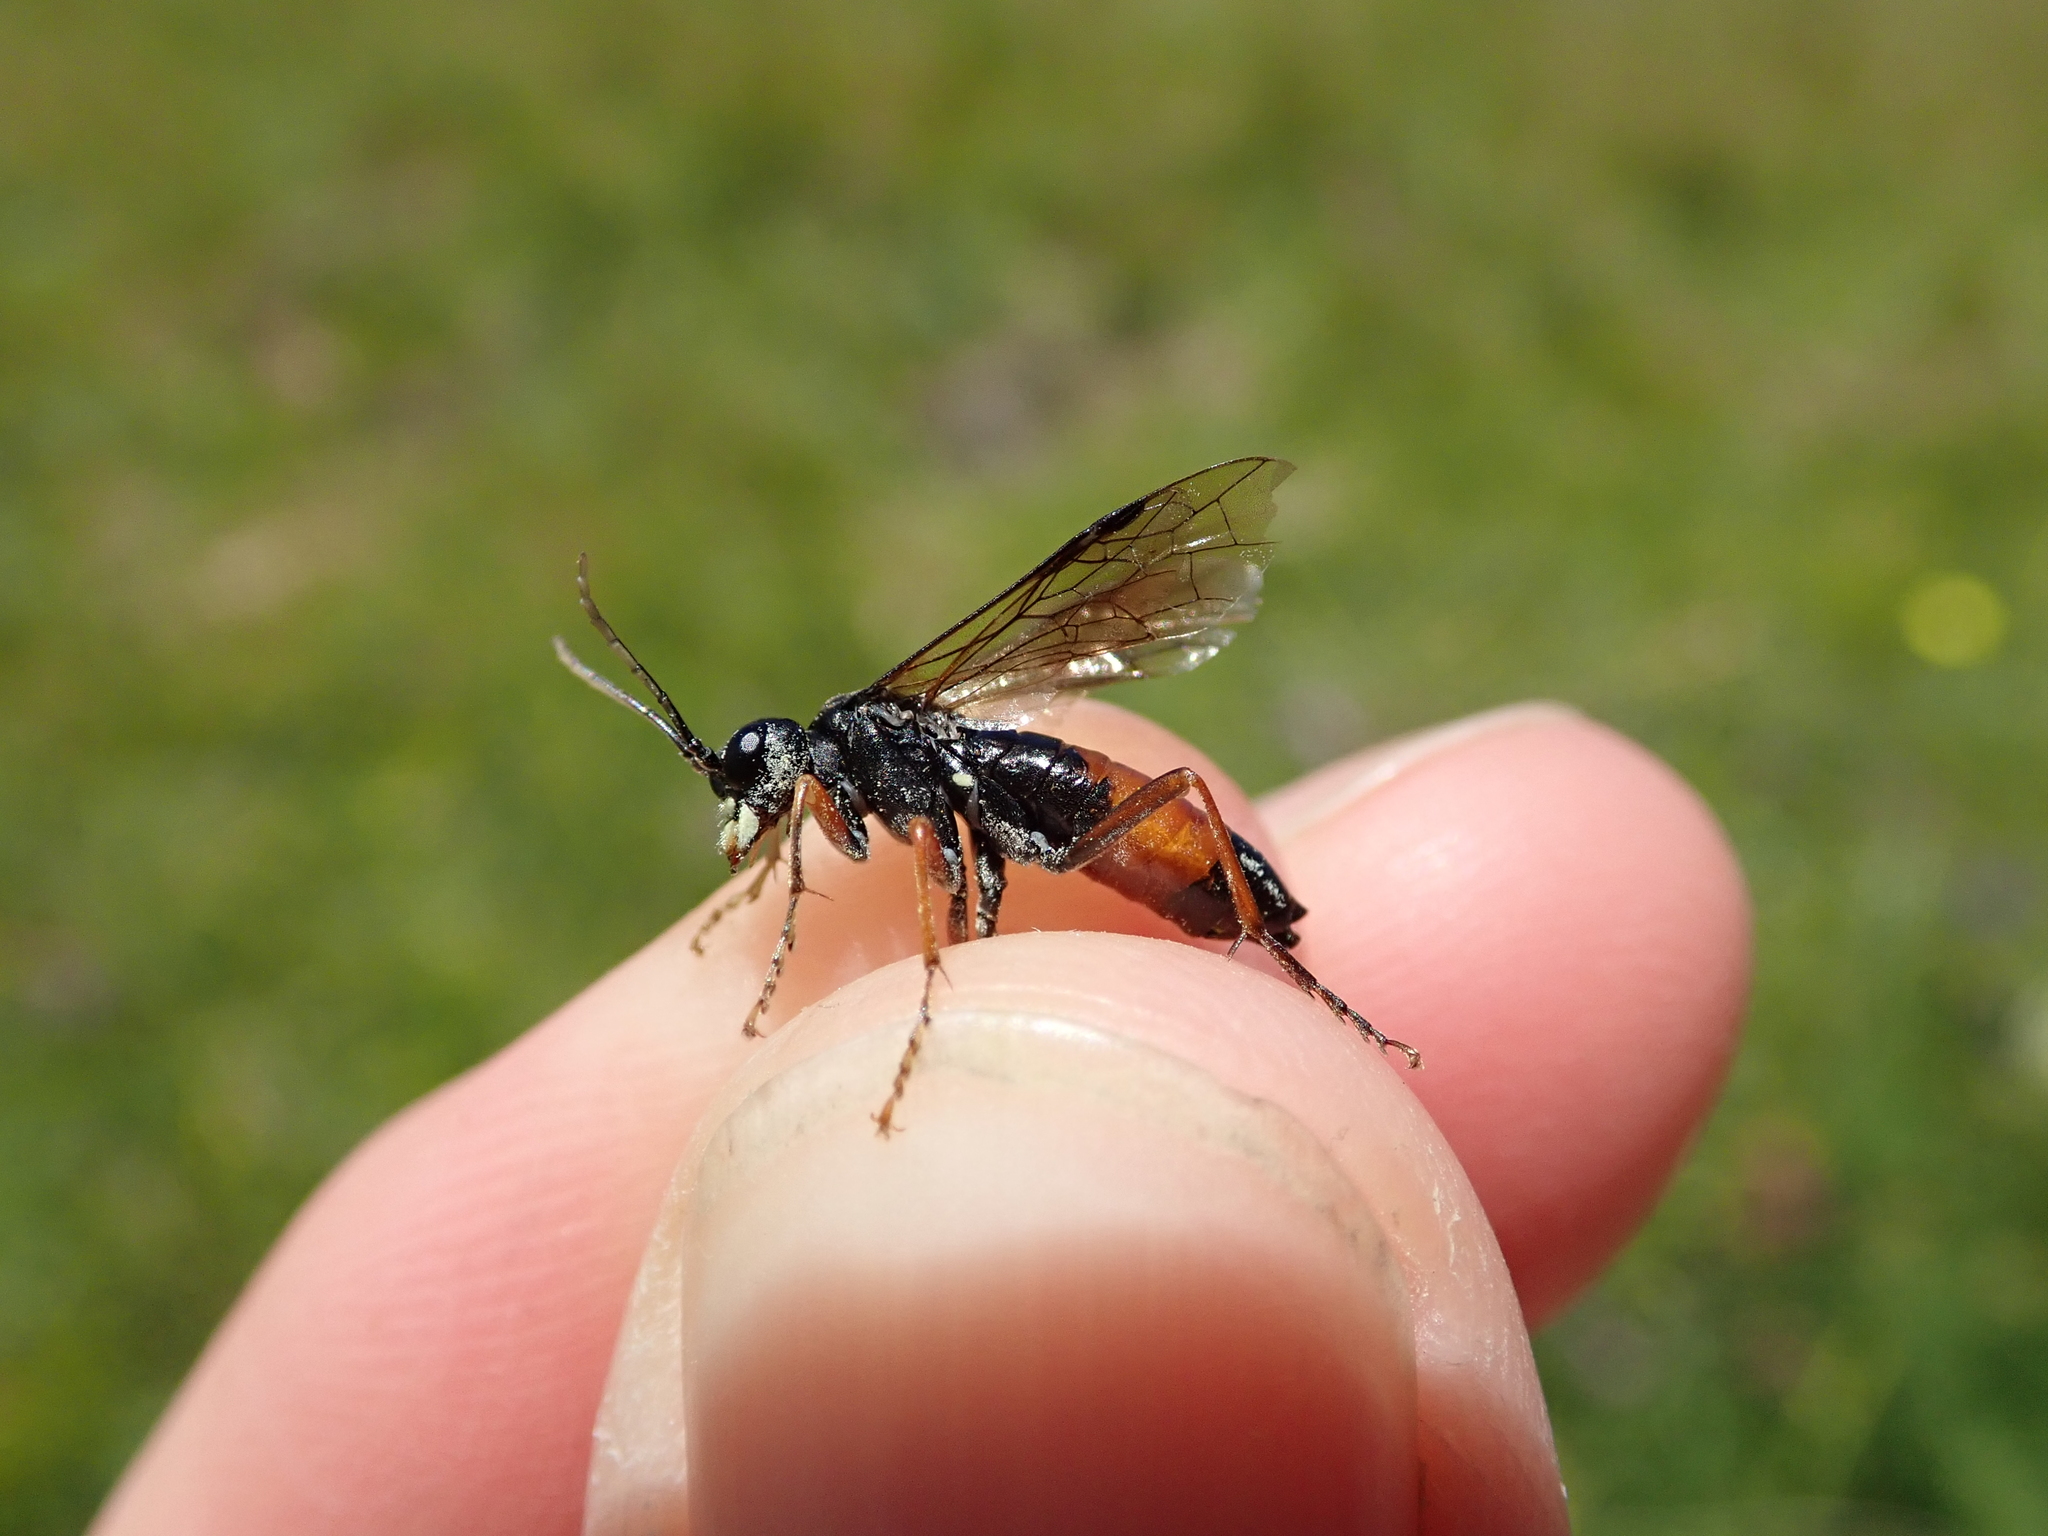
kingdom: Animalia
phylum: Arthropoda
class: Insecta
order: Hymenoptera
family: Tenthredinidae
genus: Tenthredo
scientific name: Tenthredo simplex
